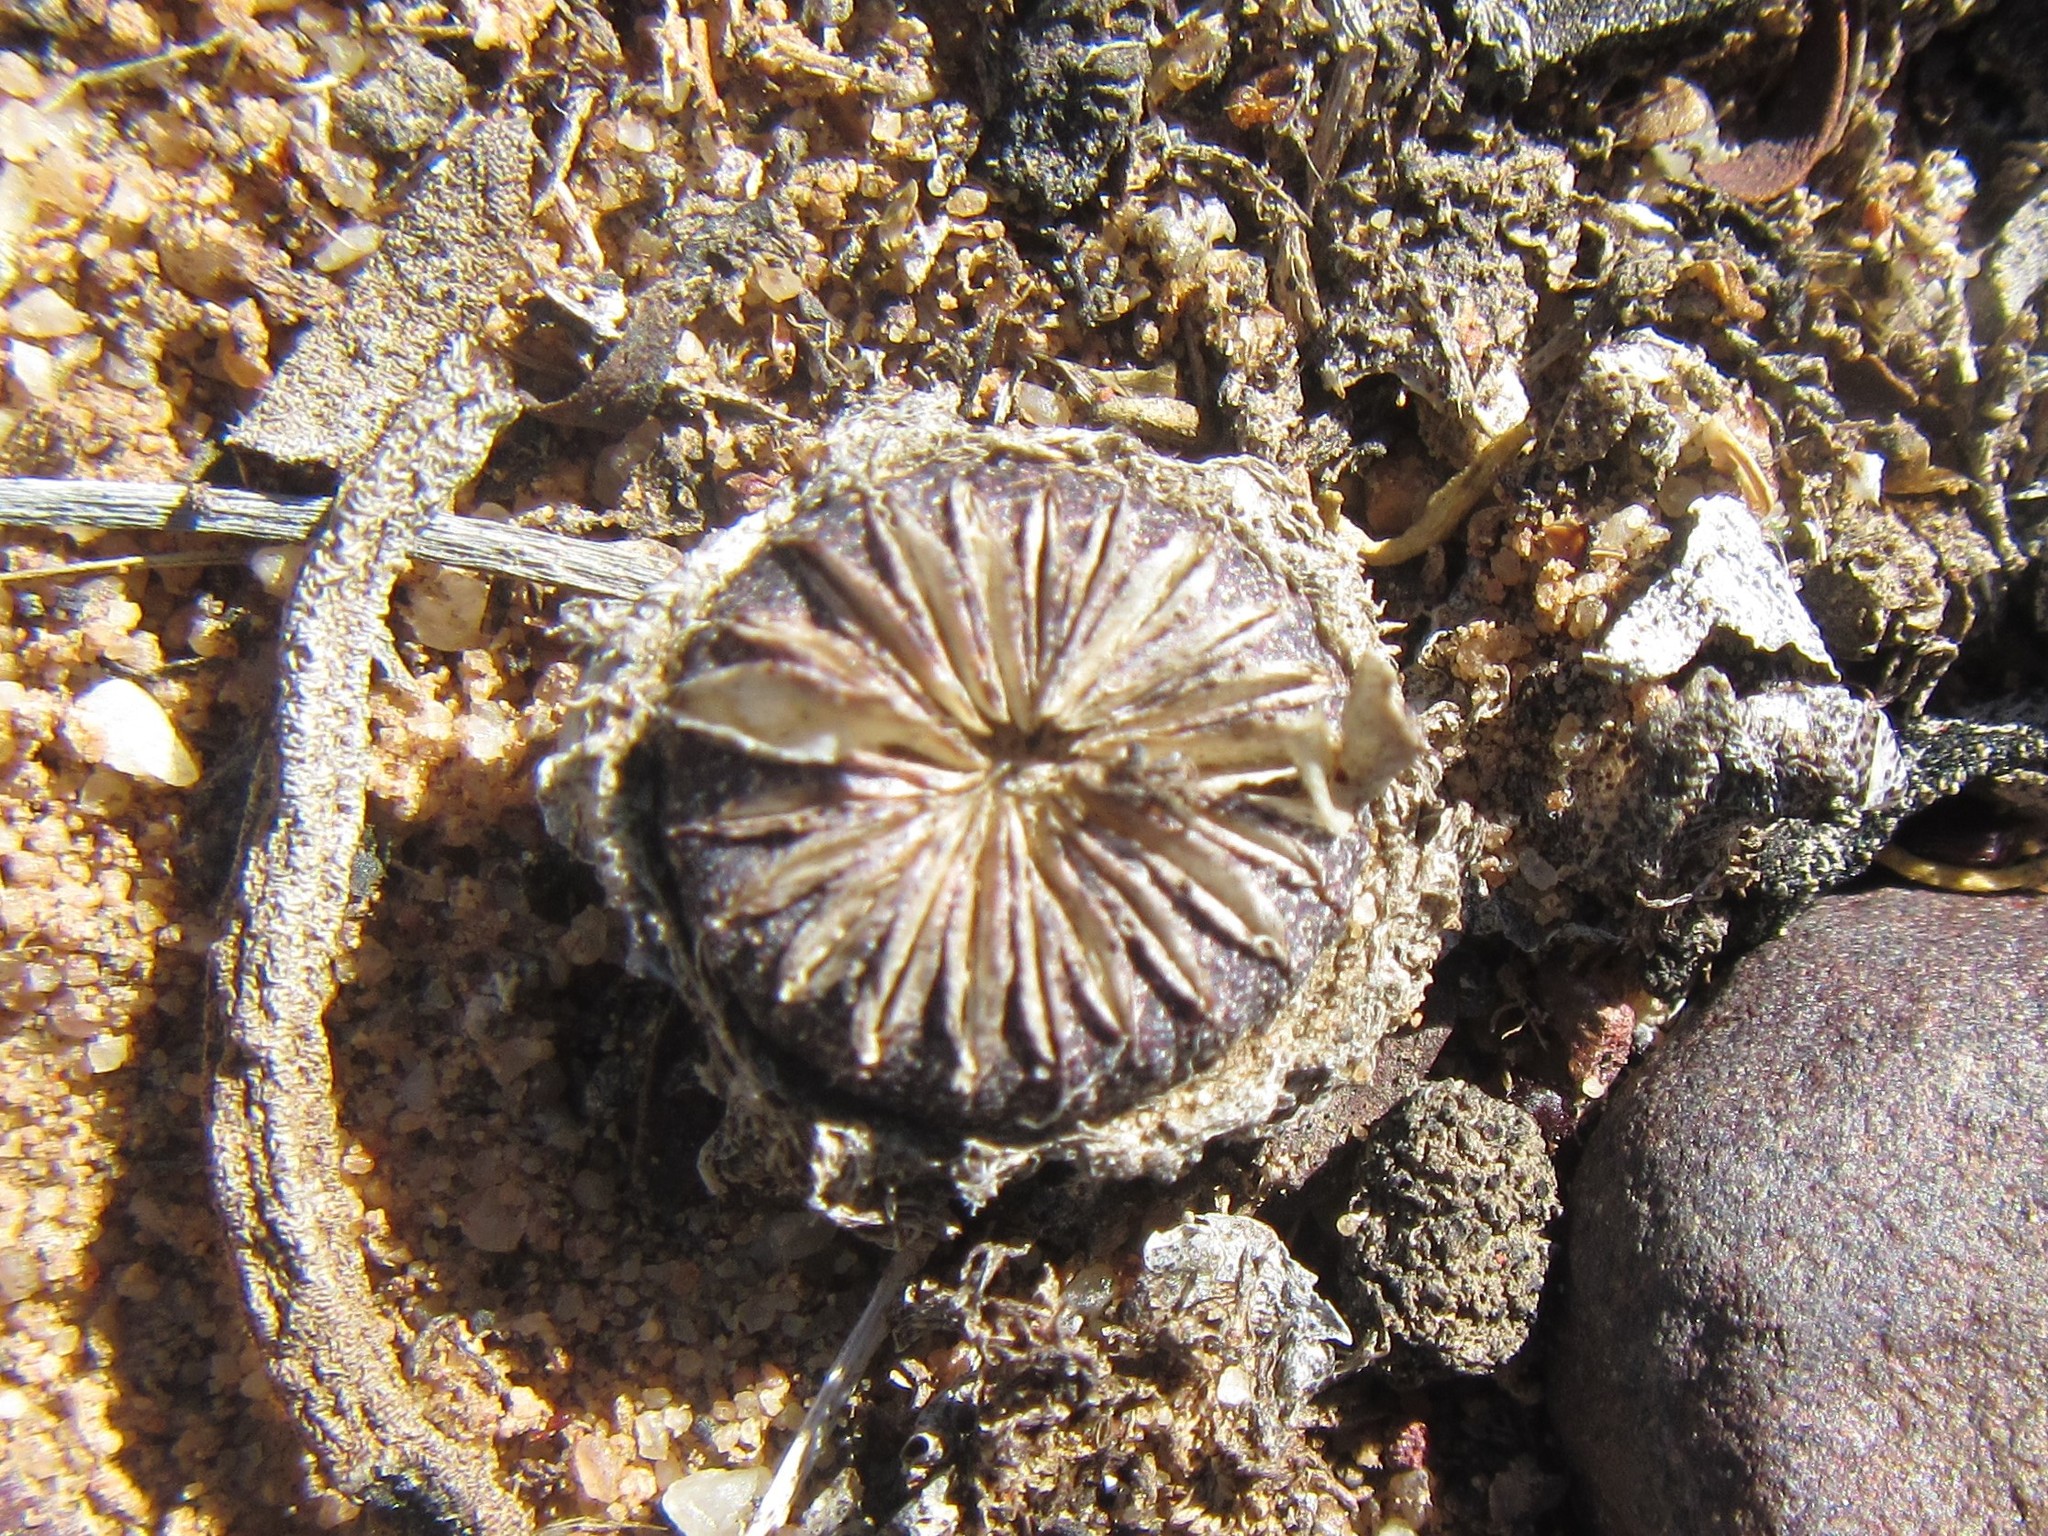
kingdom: Plantae
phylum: Tracheophyta
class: Magnoliopsida
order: Caryophyllales
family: Aizoaceae
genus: Cephalophyllum
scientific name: Cephalophyllum loreum
